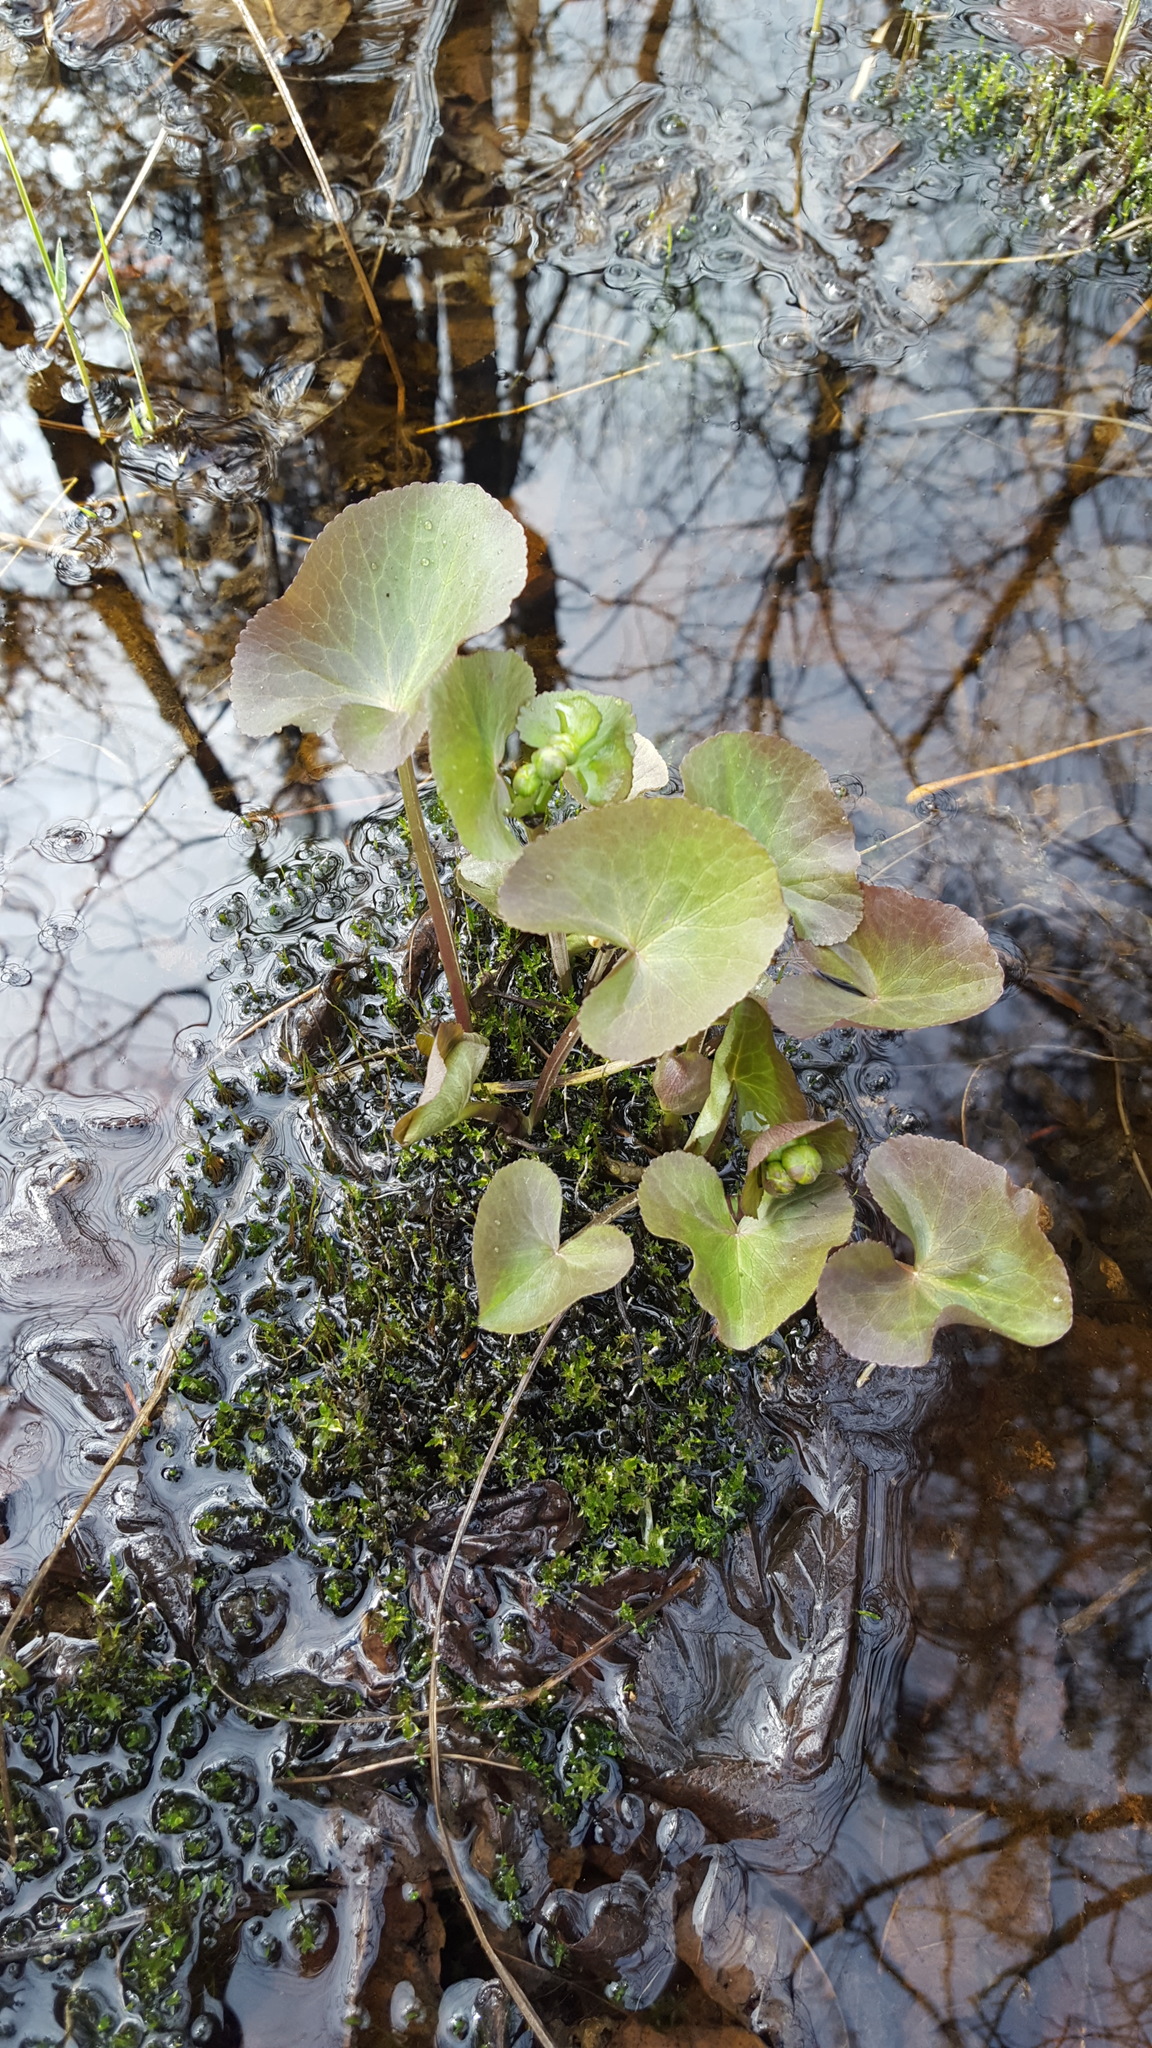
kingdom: Plantae
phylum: Tracheophyta
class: Magnoliopsida
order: Ranunculales
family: Ranunculaceae
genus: Caltha
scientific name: Caltha palustris
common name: Marsh marigold
